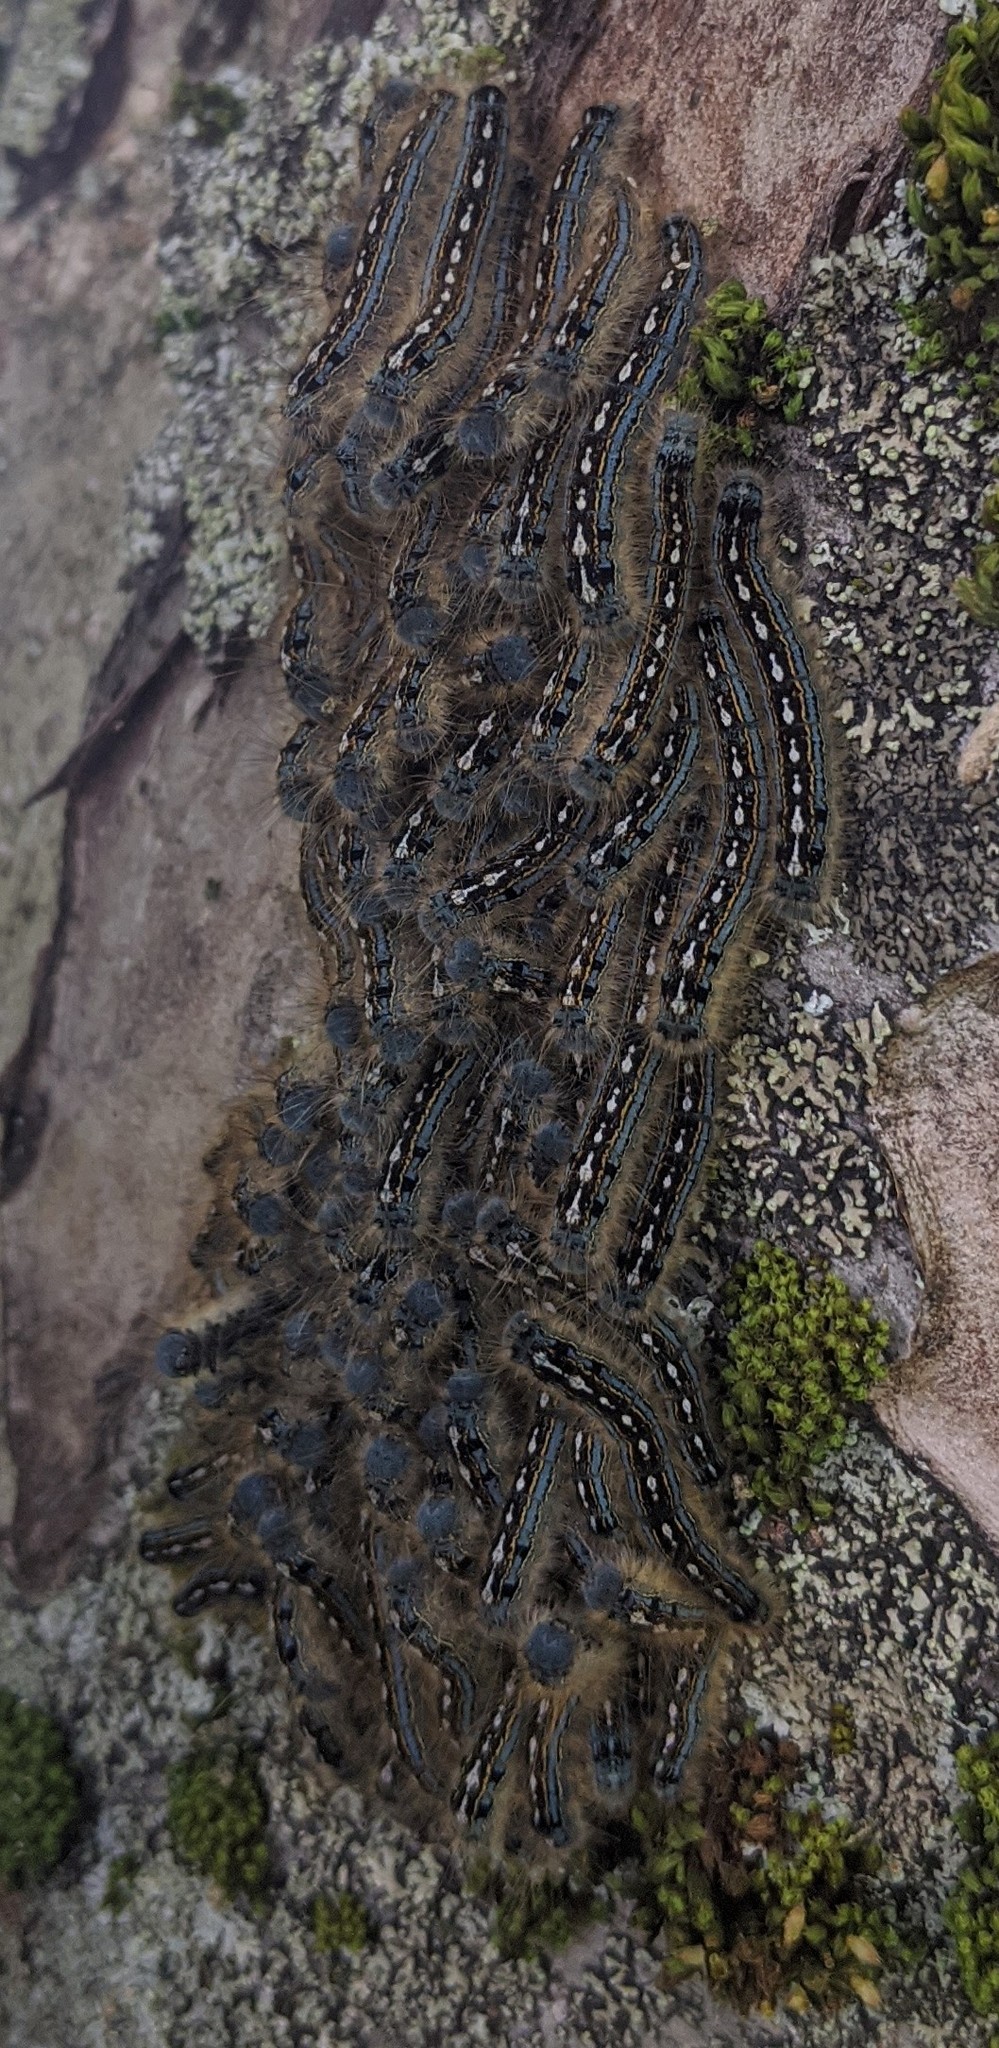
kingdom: Animalia
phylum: Arthropoda
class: Insecta
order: Lepidoptera
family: Lasiocampidae
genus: Malacosoma
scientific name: Malacosoma disstria
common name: Forest tent caterpillar
